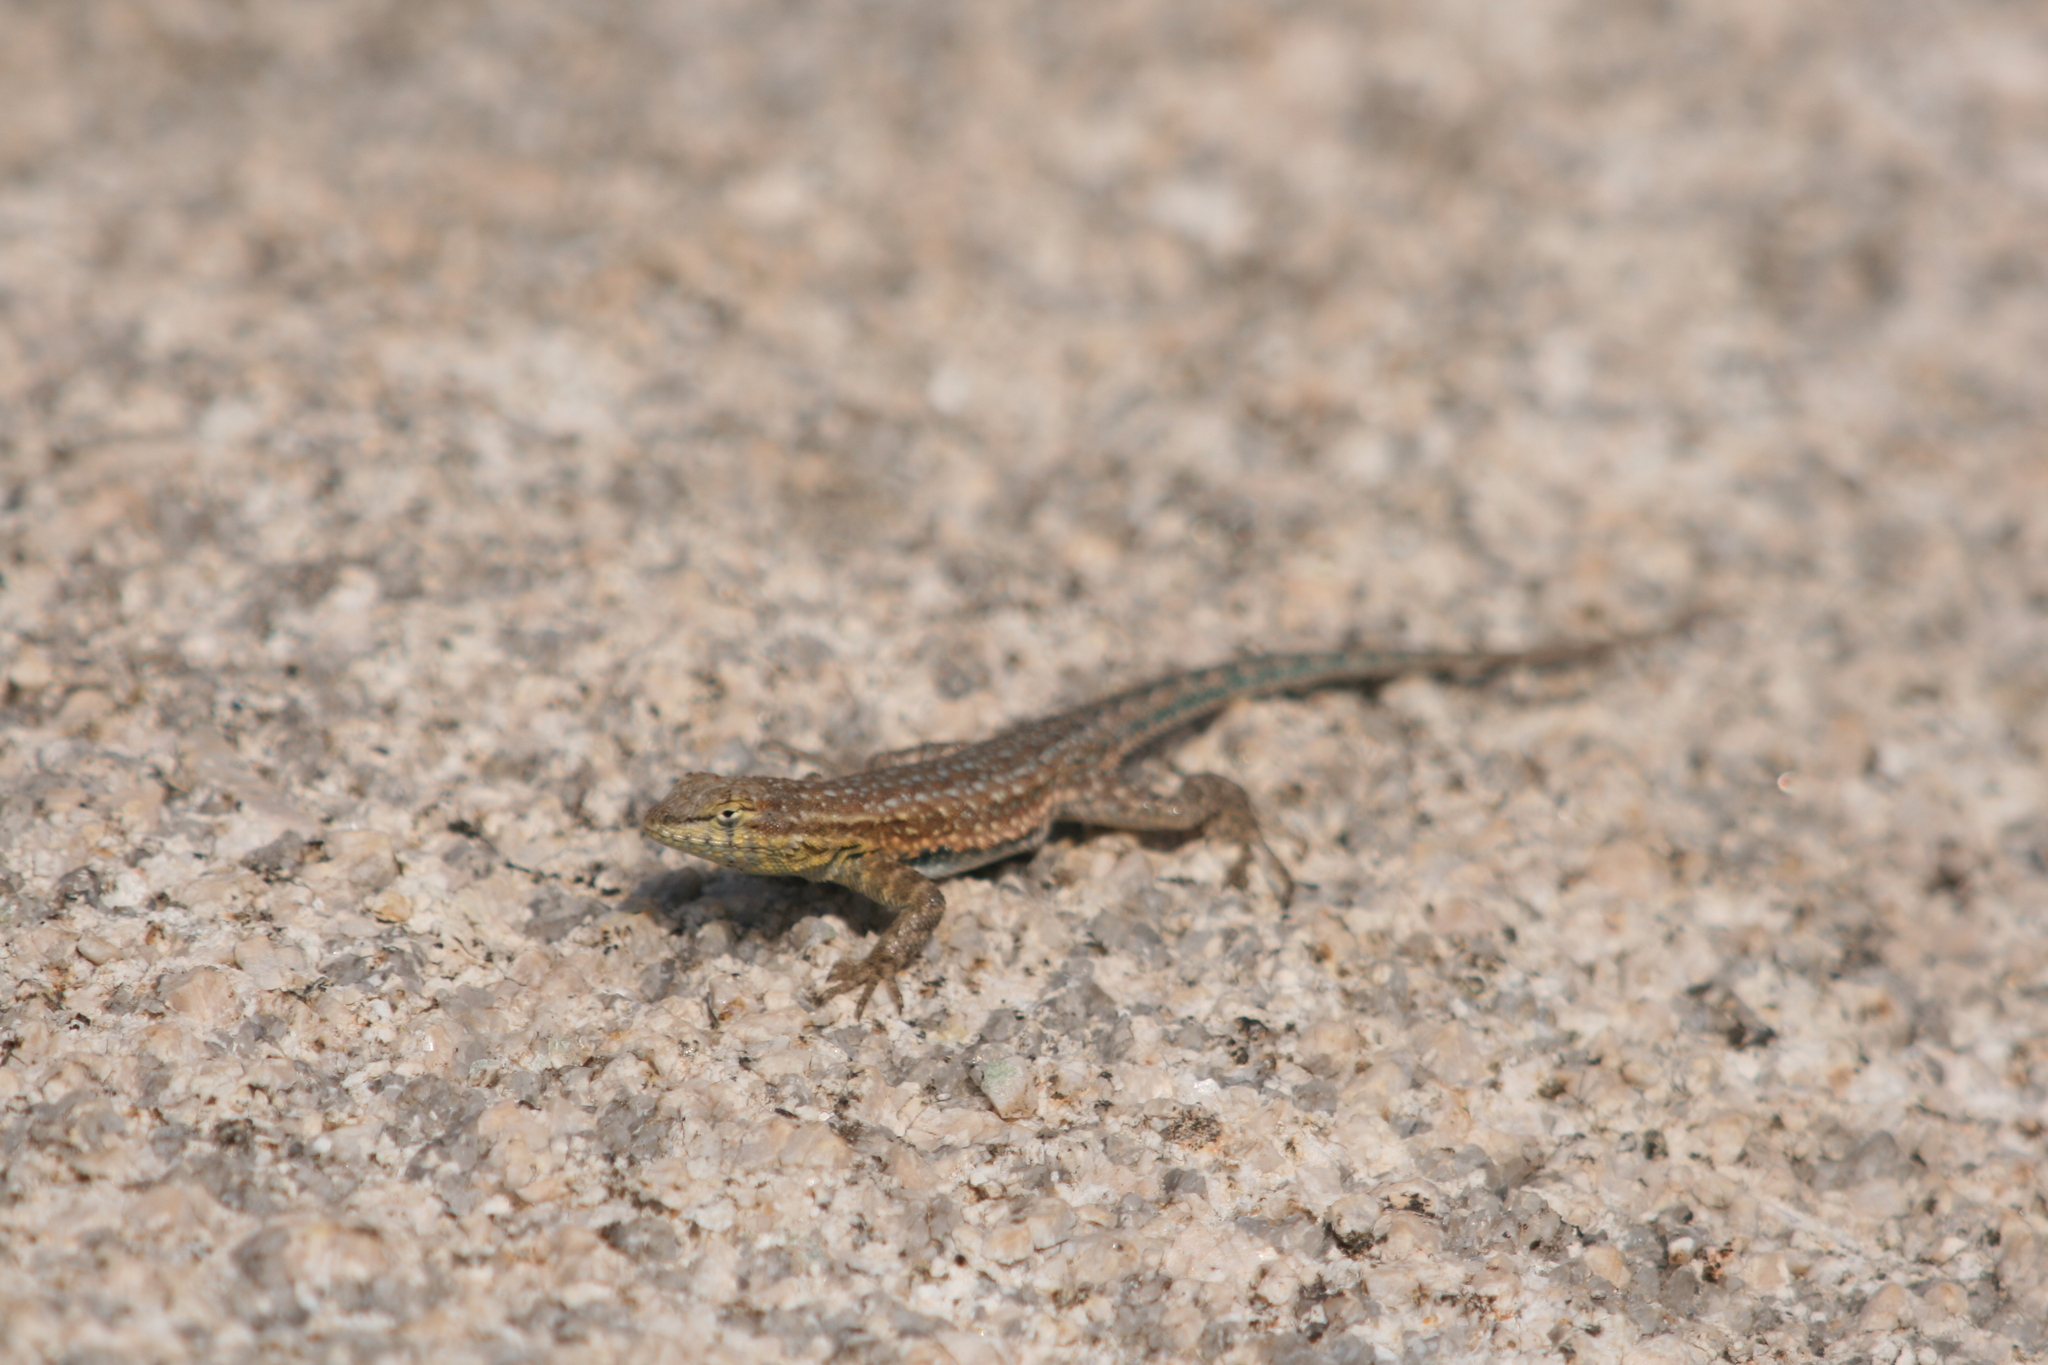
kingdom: Animalia
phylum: Chordata
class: Squamata
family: Phrynosomatidae
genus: Uta
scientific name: Uta stansburiana
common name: Side-blotched lizard
